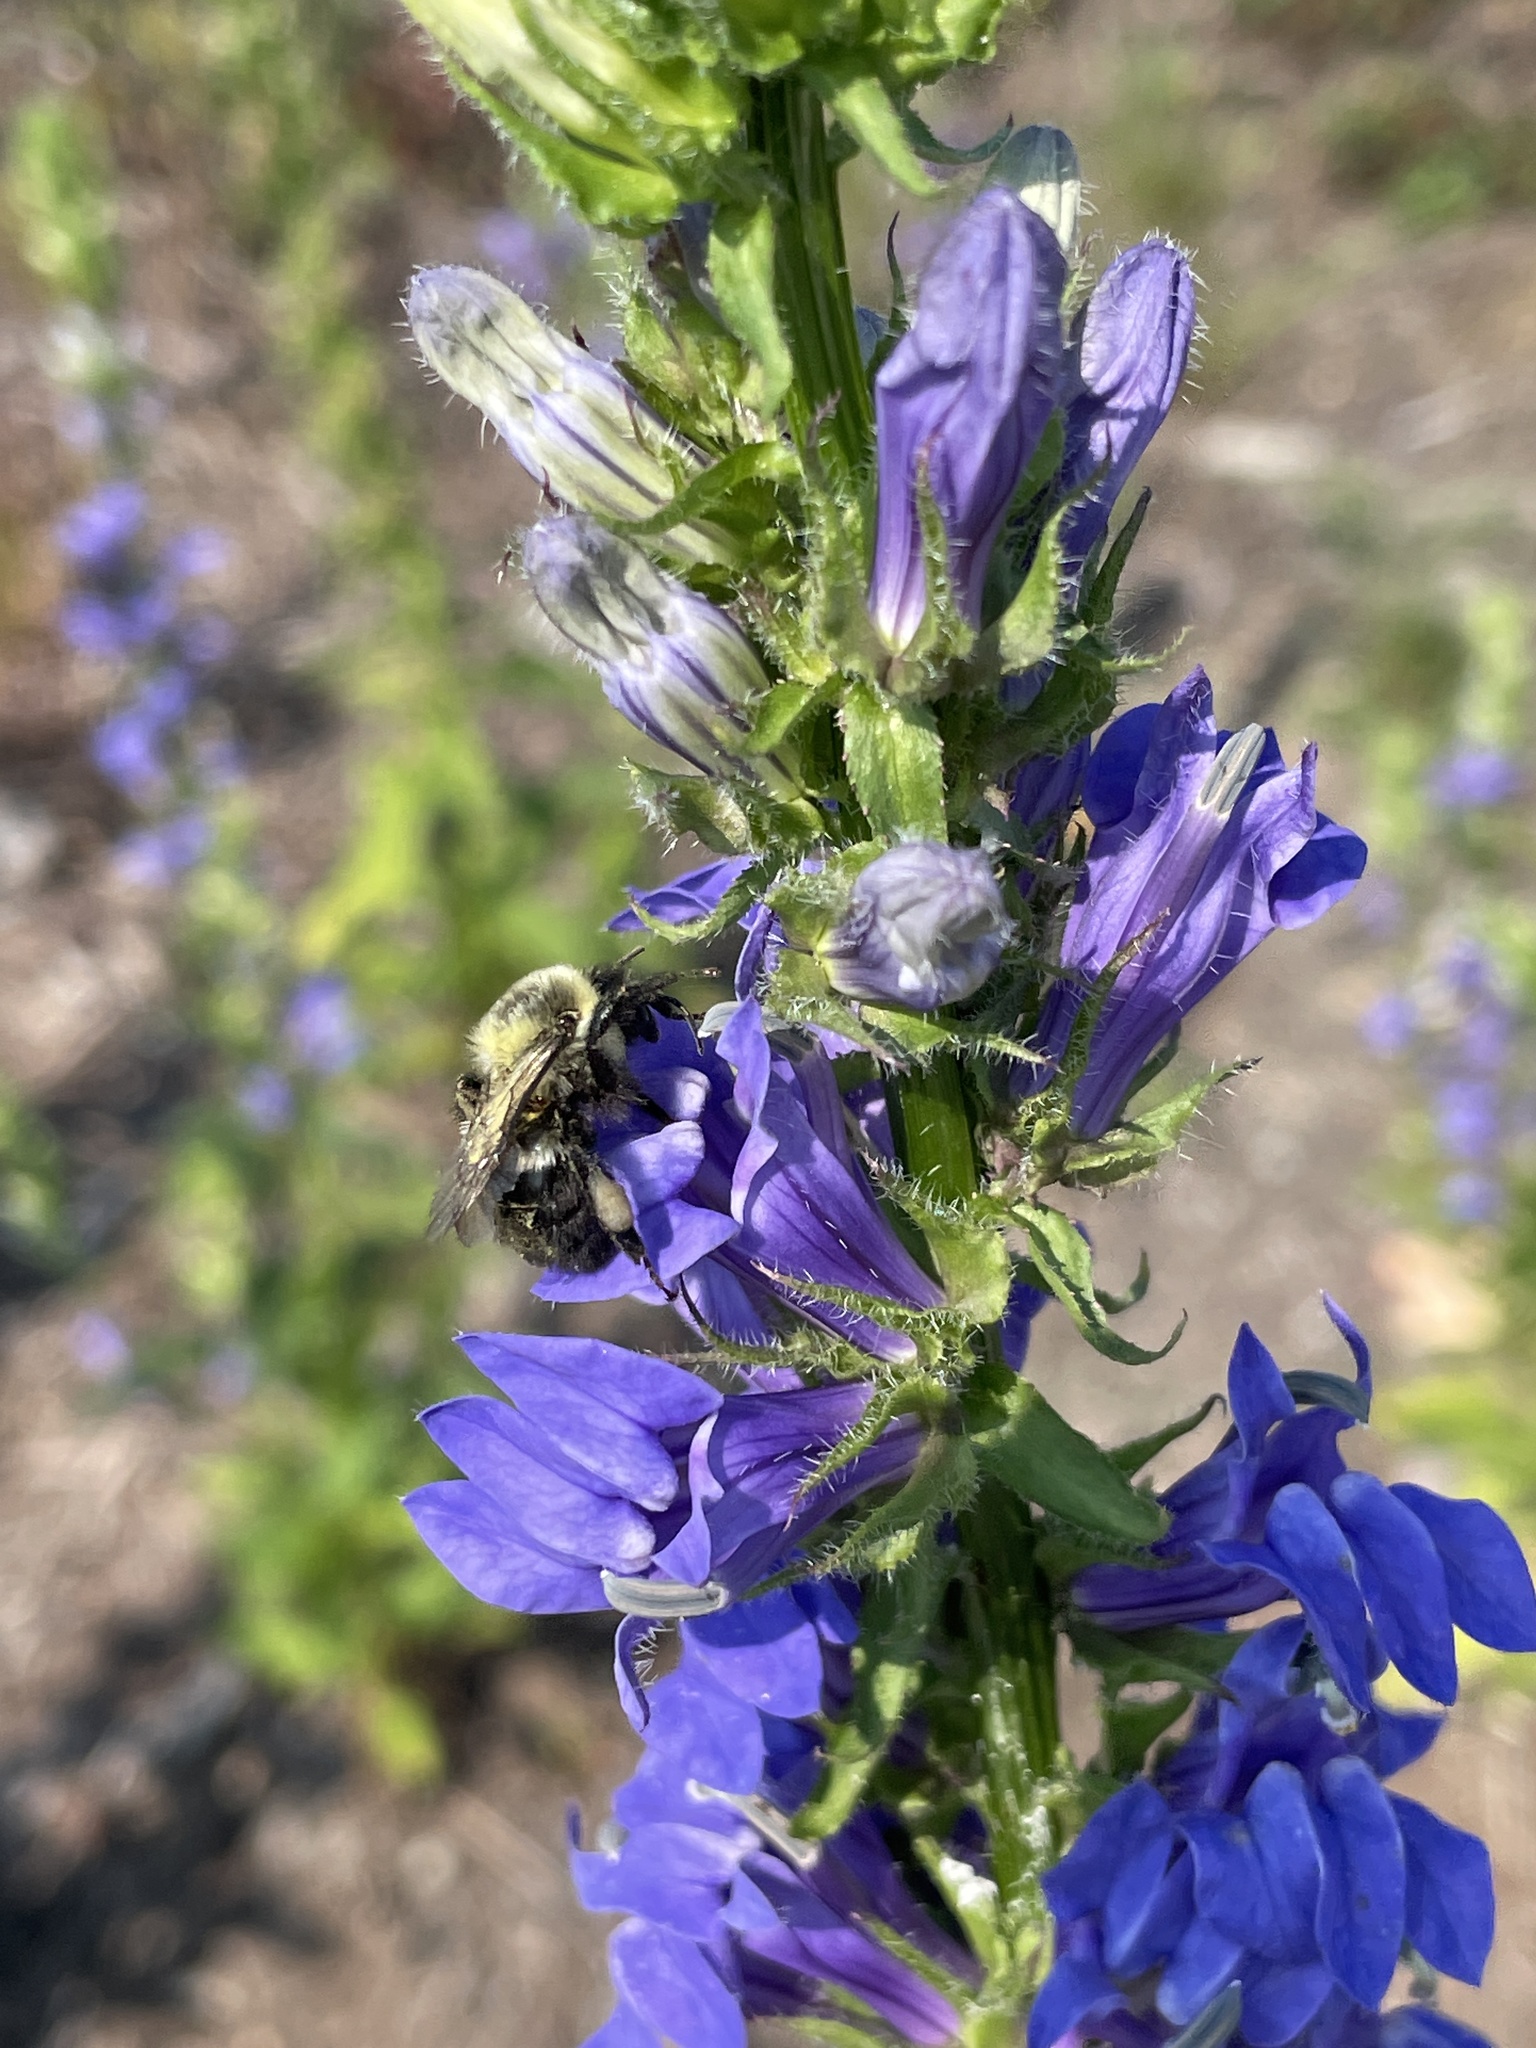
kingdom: Animalia
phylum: Arthropoda
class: Insecta
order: Hymenoptera
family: Apidae
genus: Bombus
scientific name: Bombus impatiens
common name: Common eastern bumble bee
